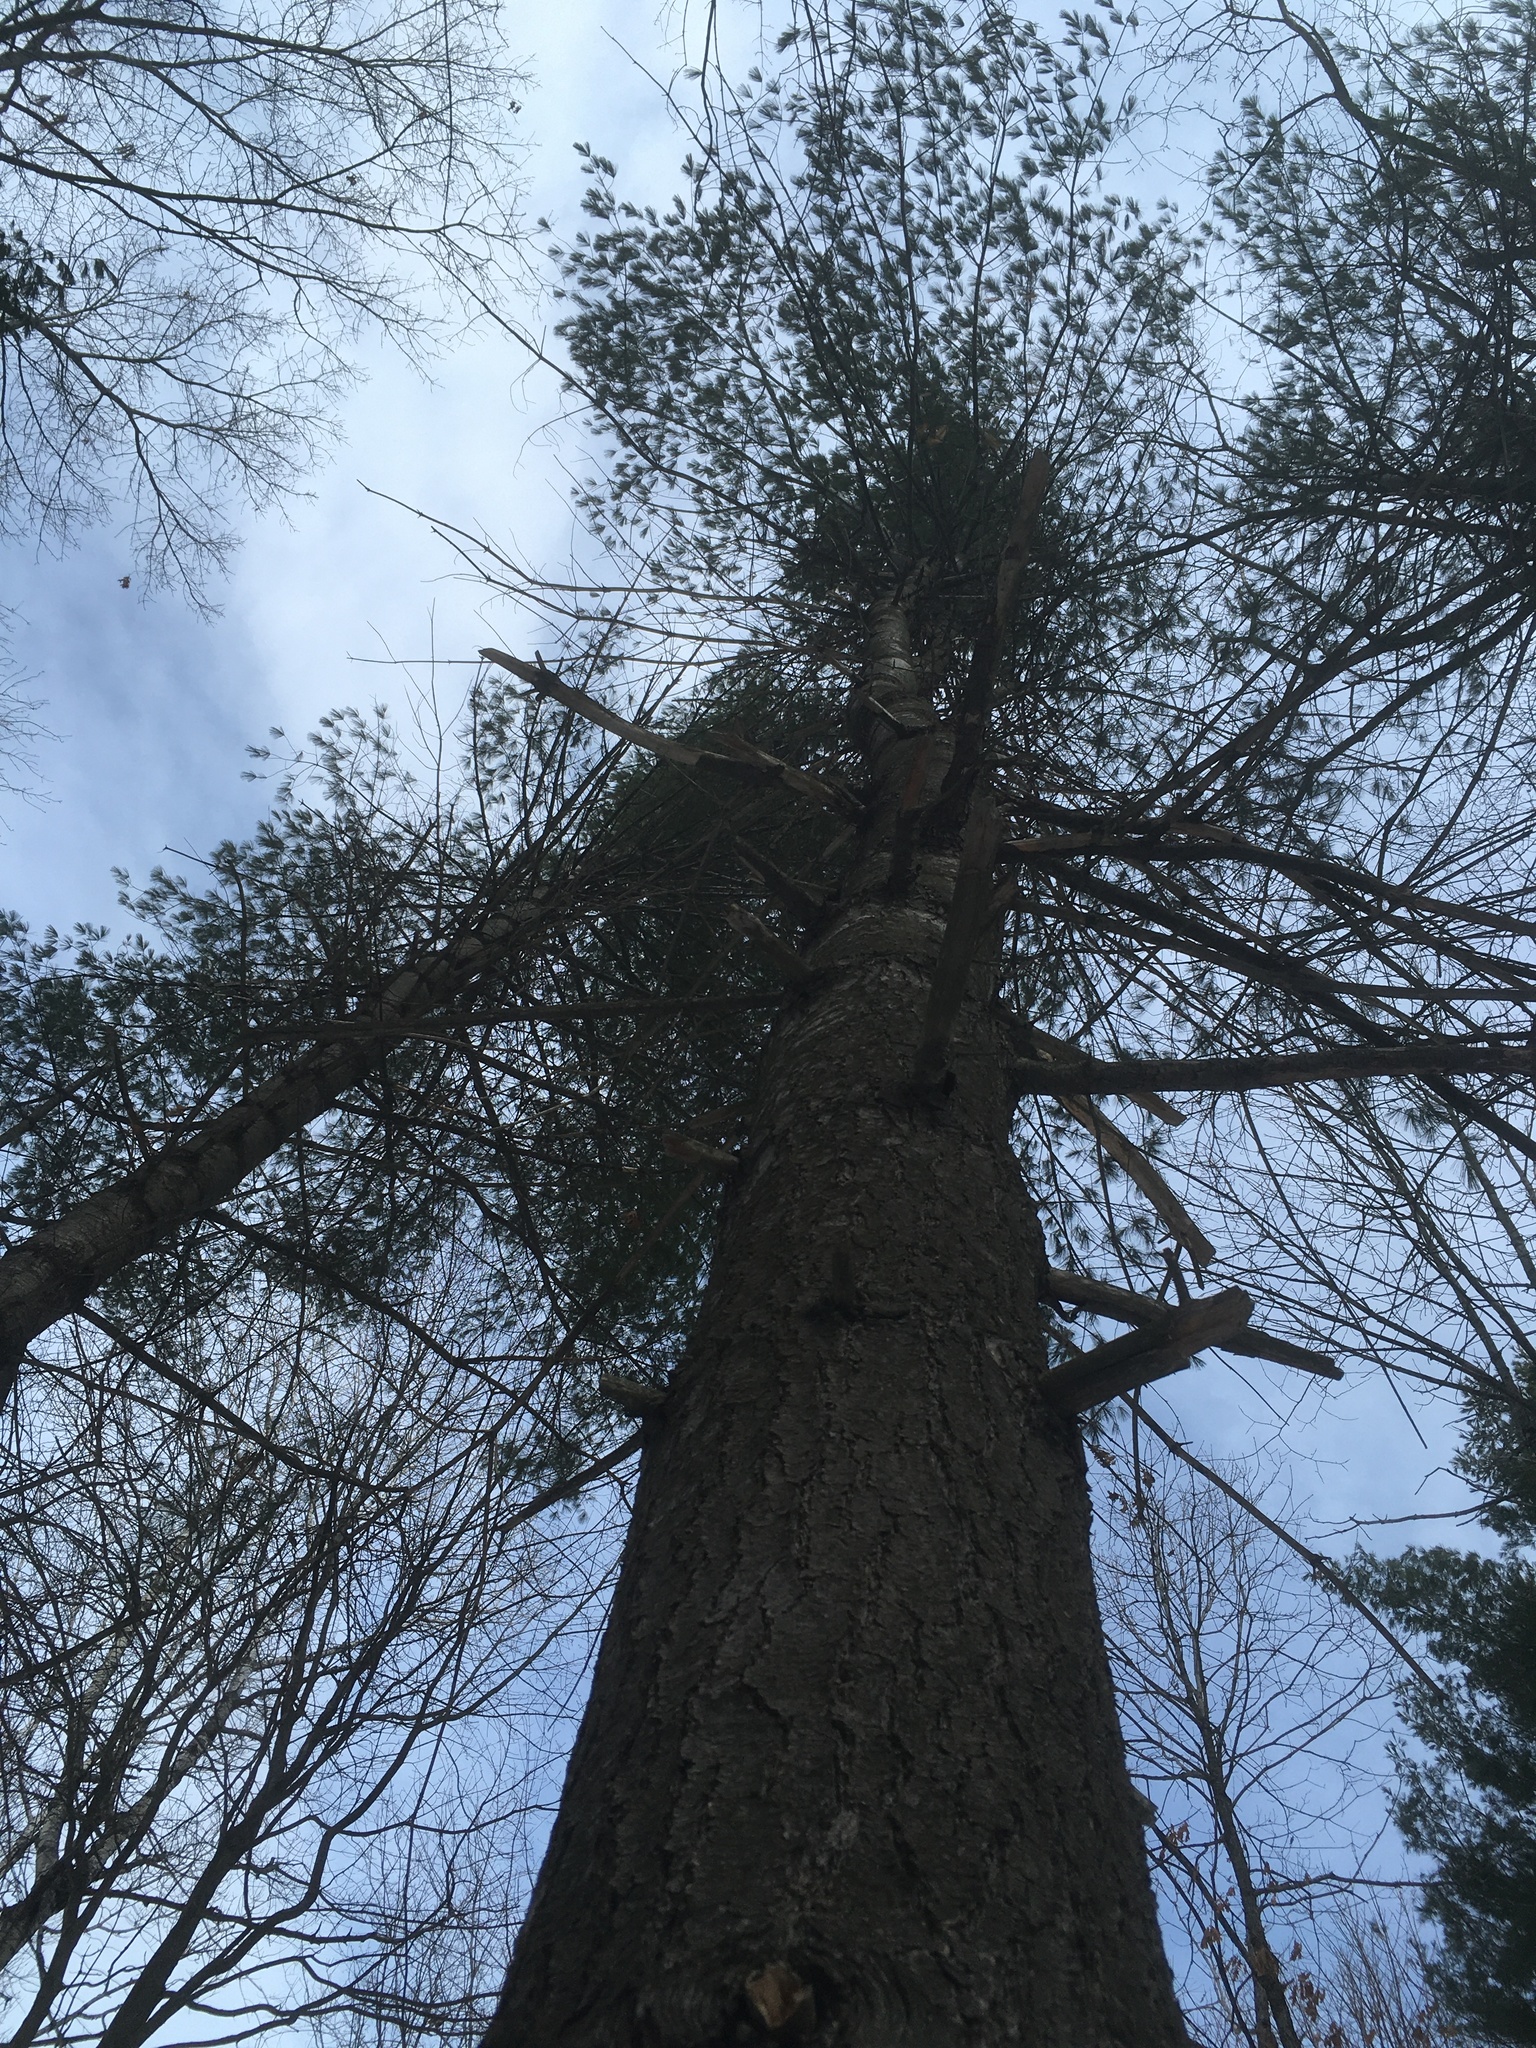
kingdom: Plantae
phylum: Tracheophyta
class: Pinopsida
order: Pinales
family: Pinaceae
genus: Pinus
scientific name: Pinus strobus
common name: Weymouth pine
